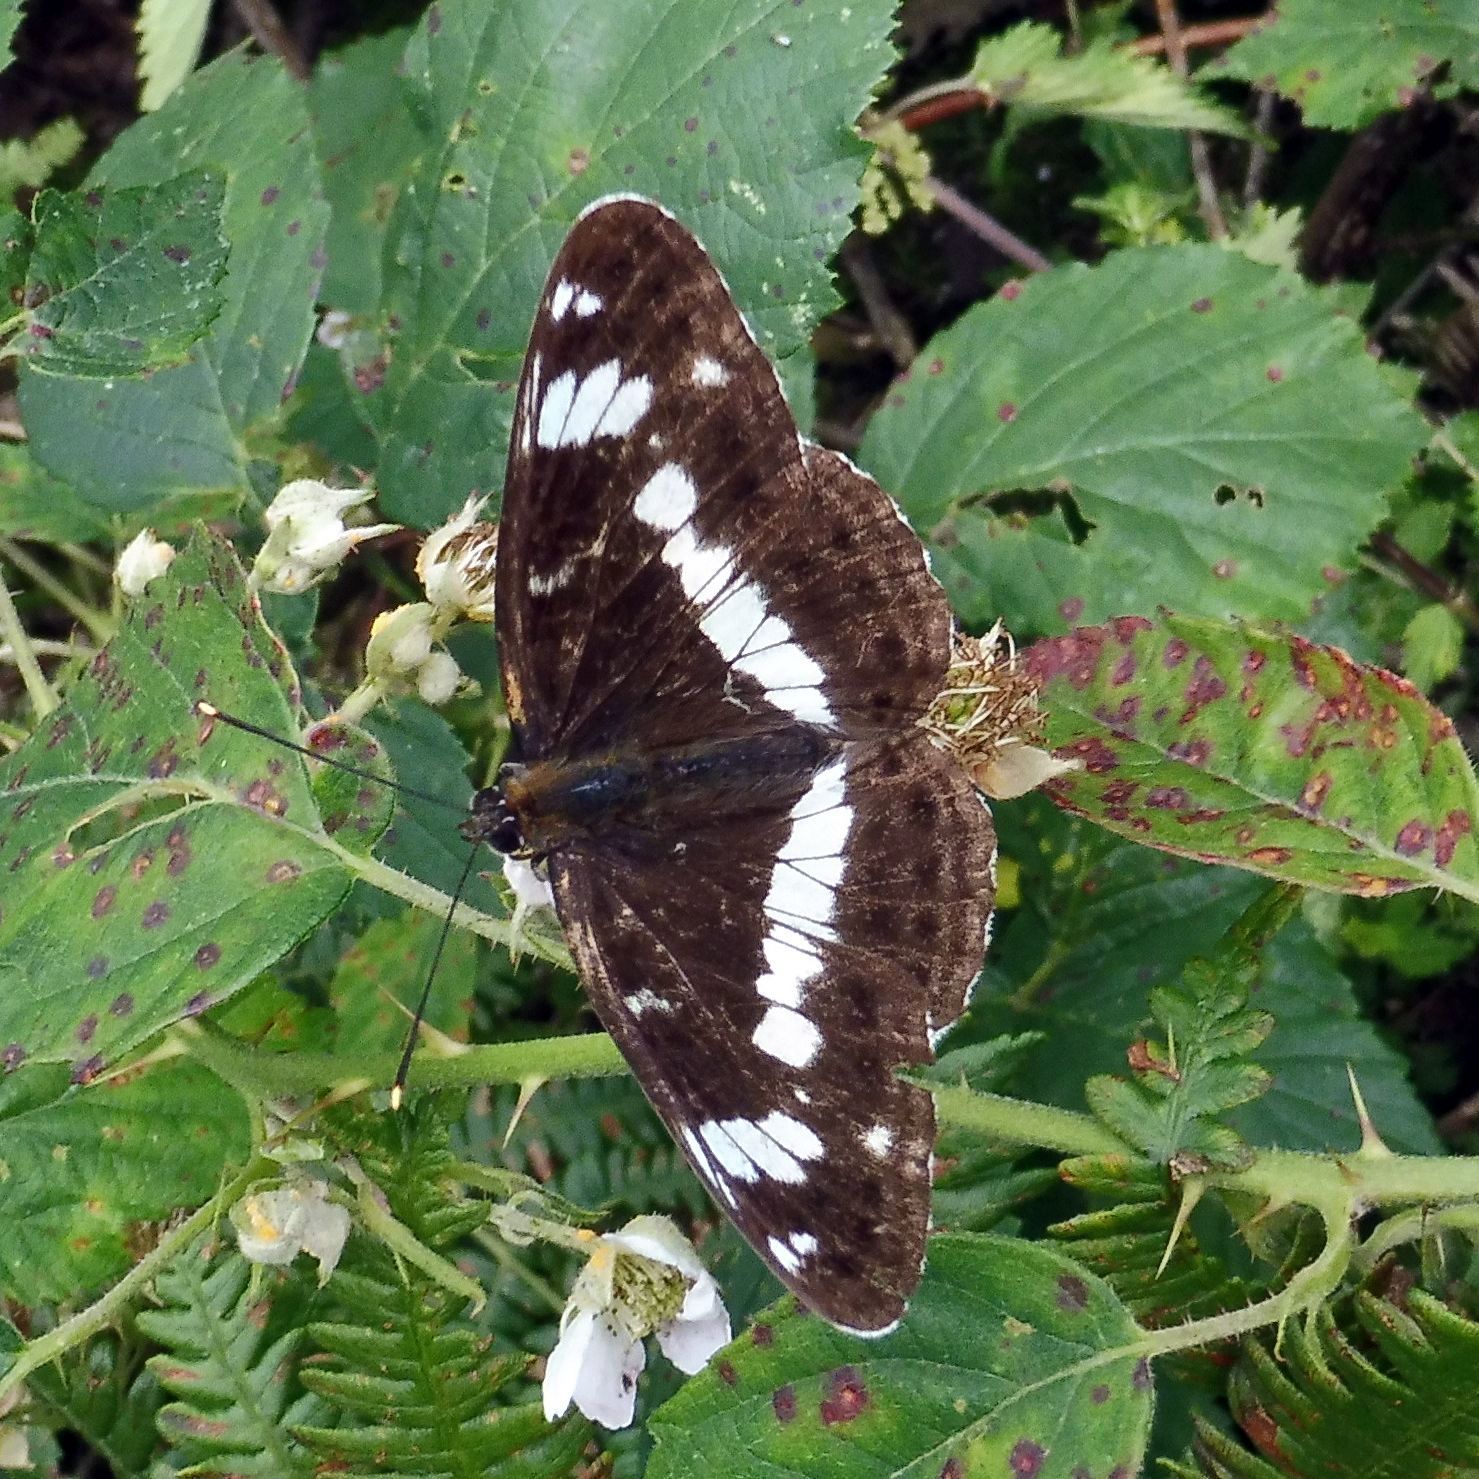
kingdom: Animalia
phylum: Arthropoda
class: Insecta
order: Lepidoptera
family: Nymphalidae
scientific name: Nymphalidae
